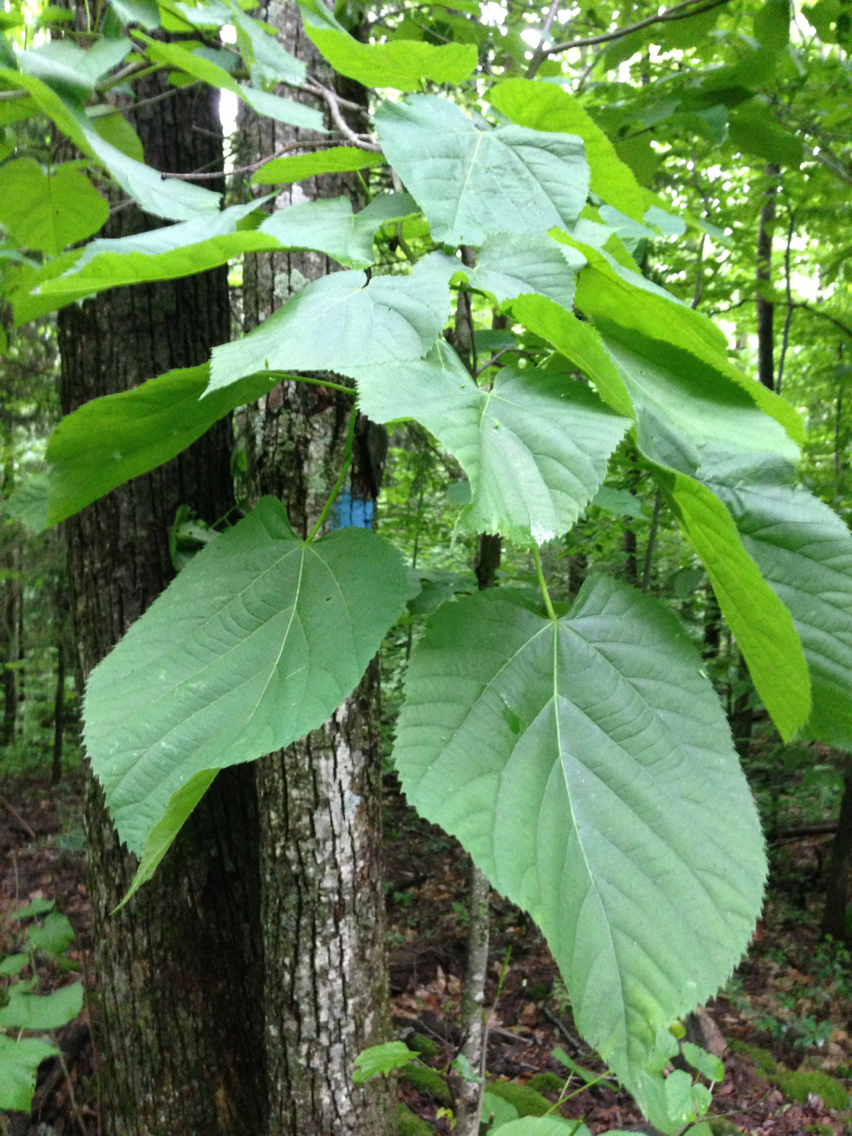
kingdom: Plantae
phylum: Tracheophyta
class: Magnoliopsida
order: Malvales
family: Malvaceae
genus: Tilia
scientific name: Tilia americana
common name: Basswood
